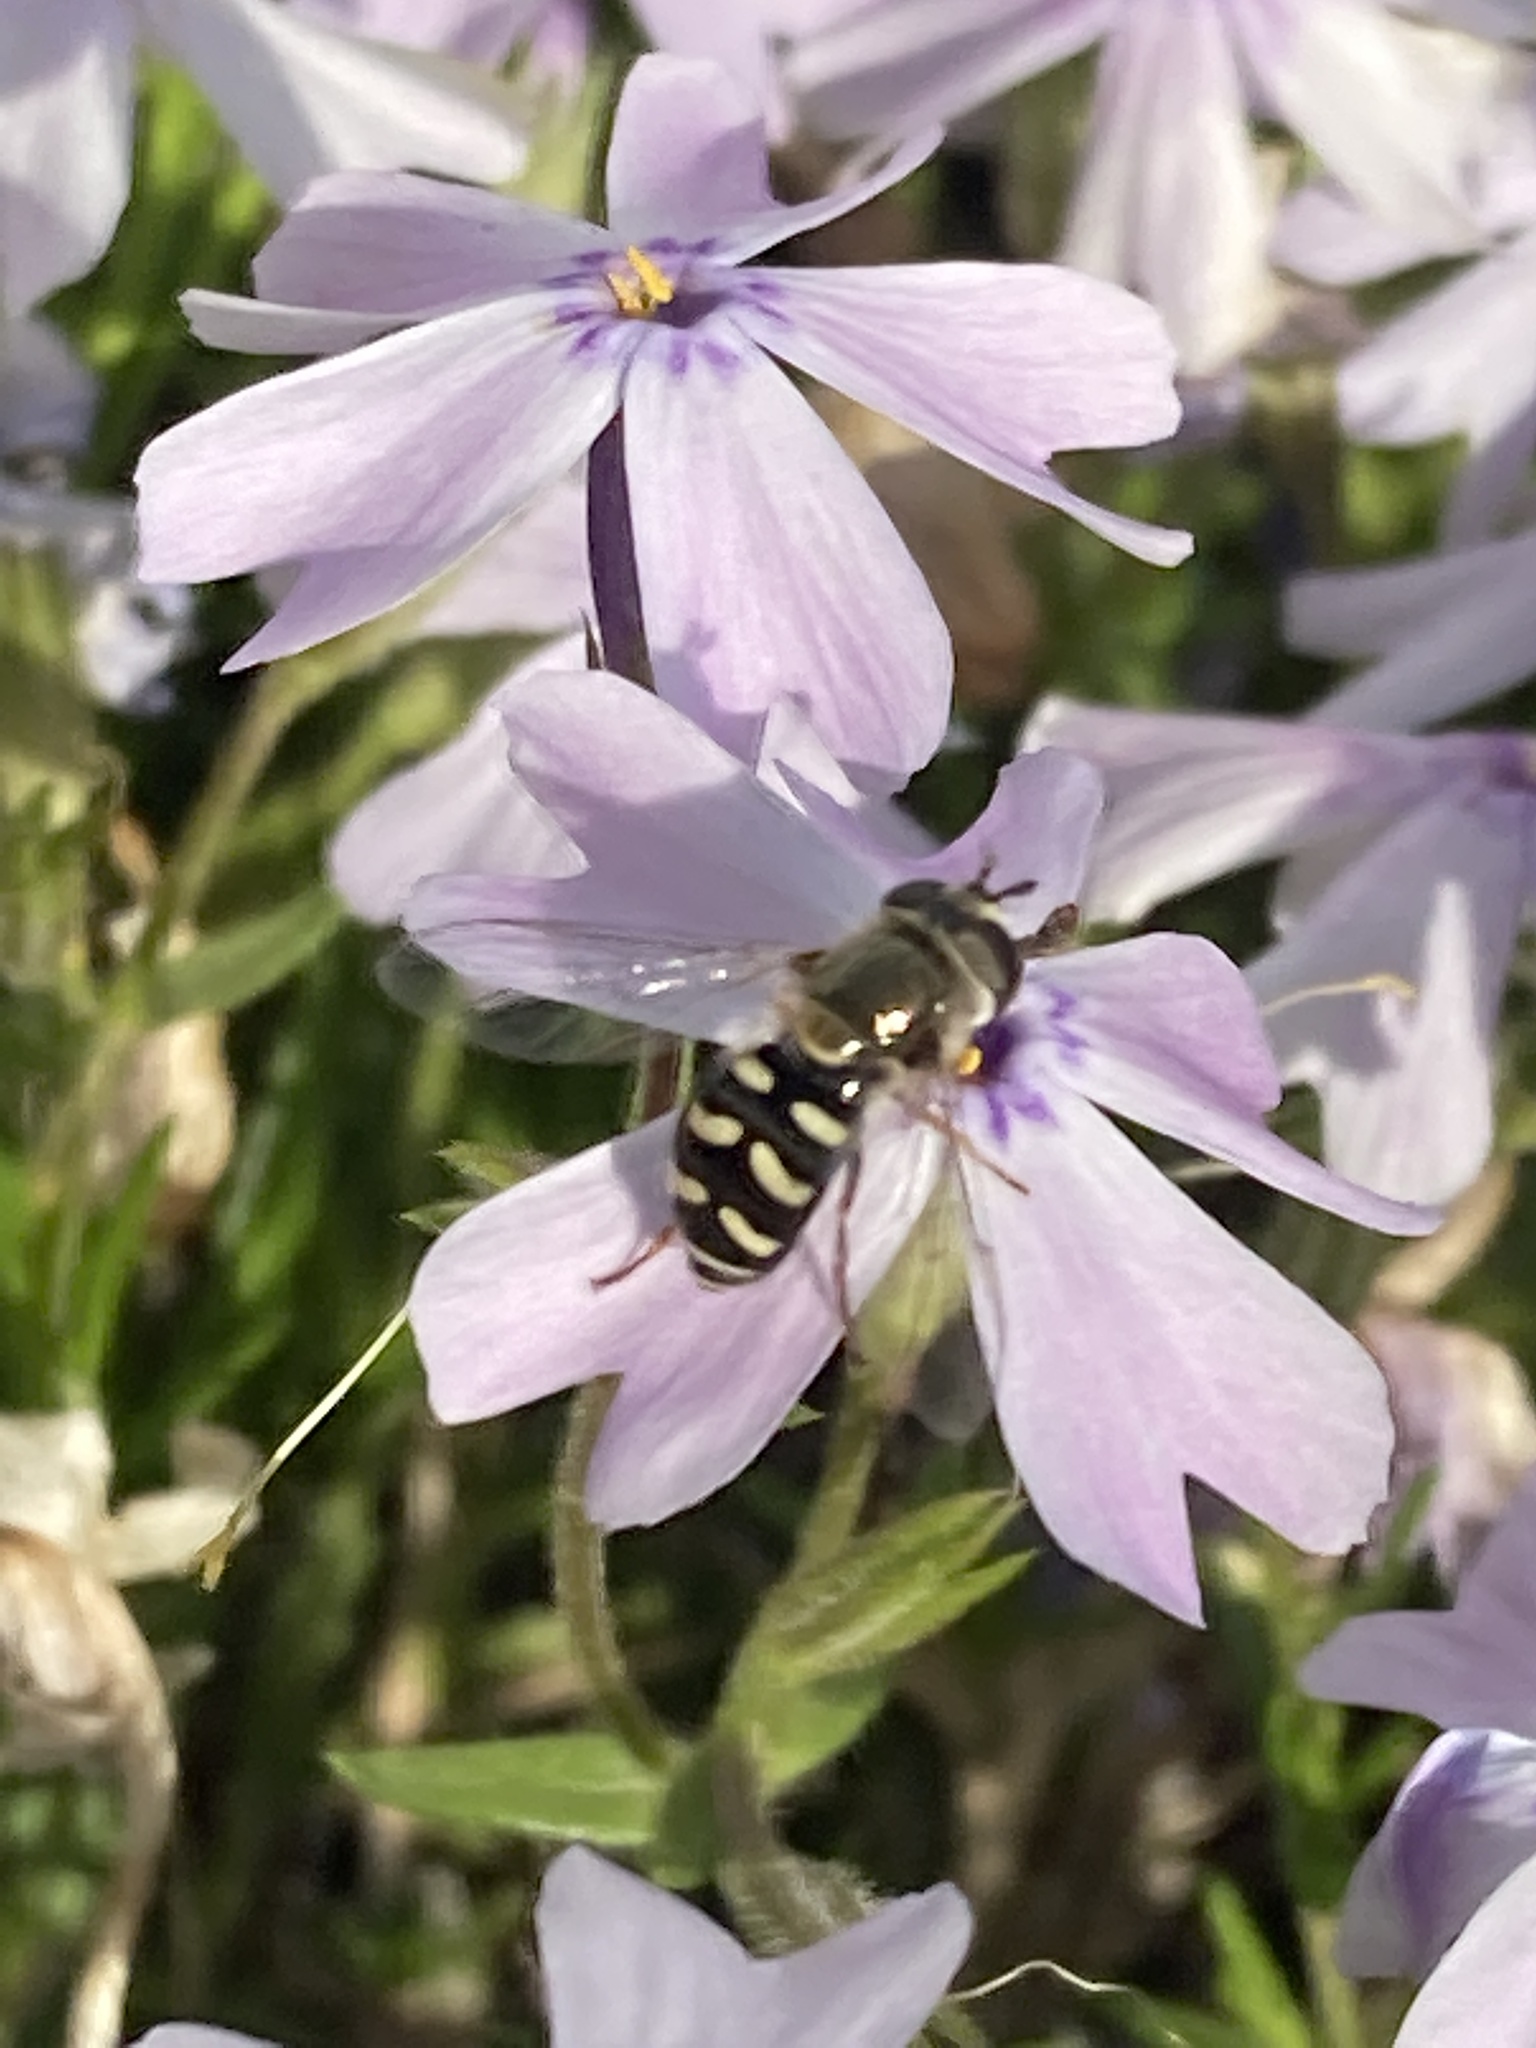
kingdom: Animalia
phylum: Arthropoda
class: Insecta
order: Diptera
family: Syrphidae
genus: Eupeodes
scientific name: Eupeodes volucris
